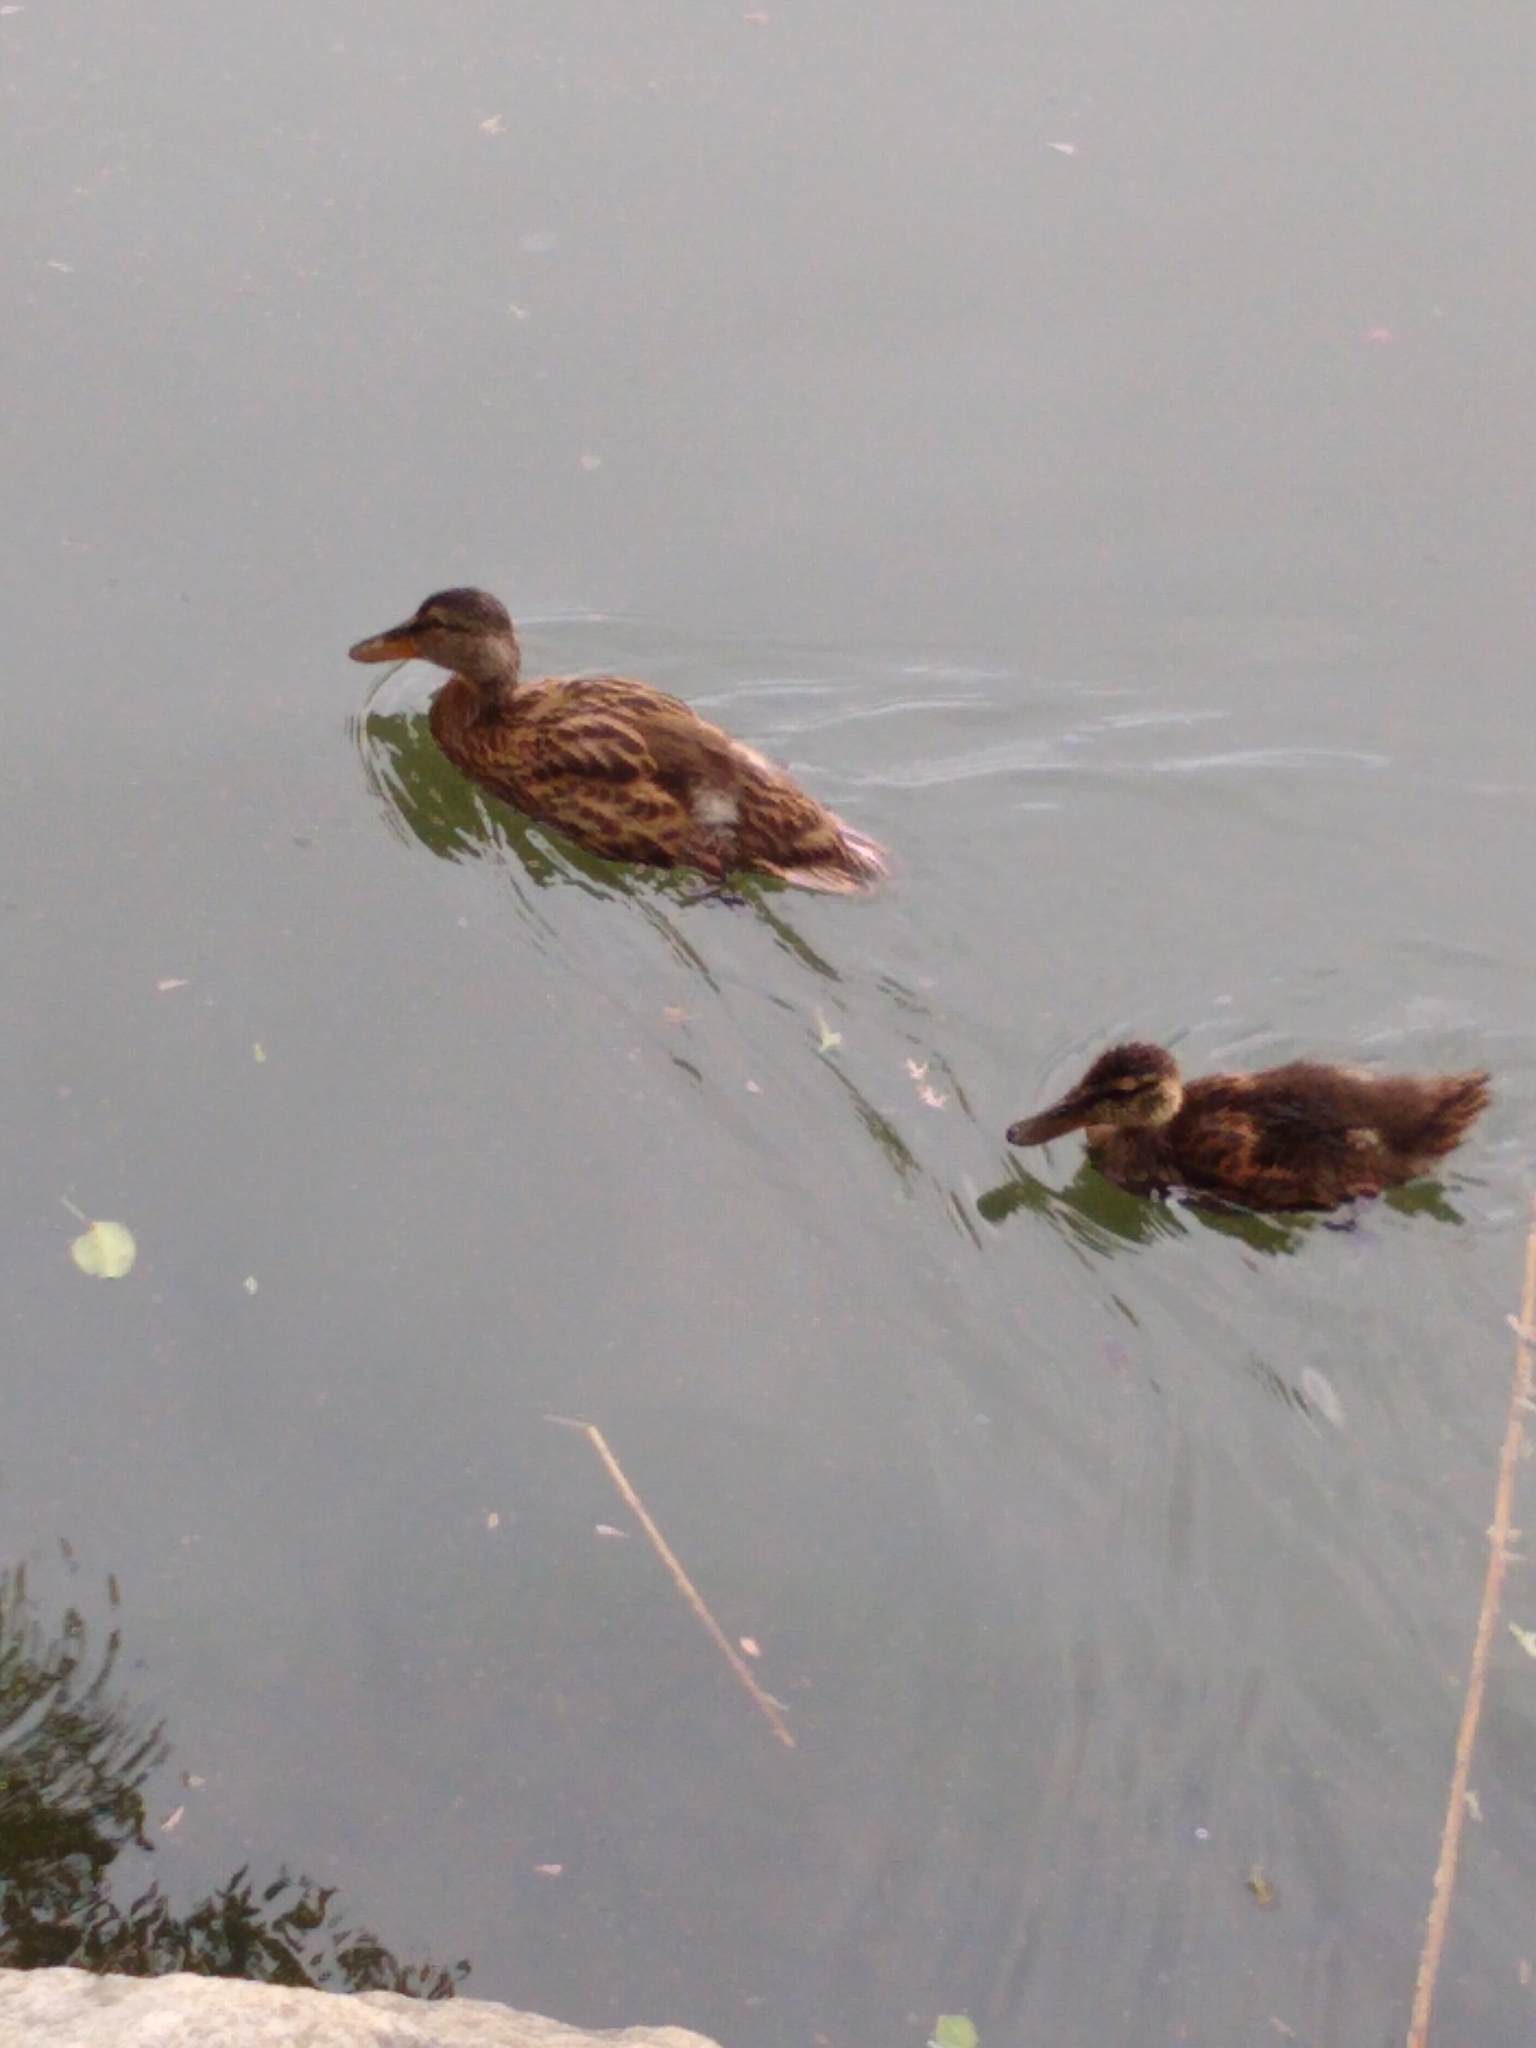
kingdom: Animalia
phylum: Chordata
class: Aves
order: Anseriformes
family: Anatidae
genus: Anas
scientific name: Anas platyrhynchos
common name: Mallard
